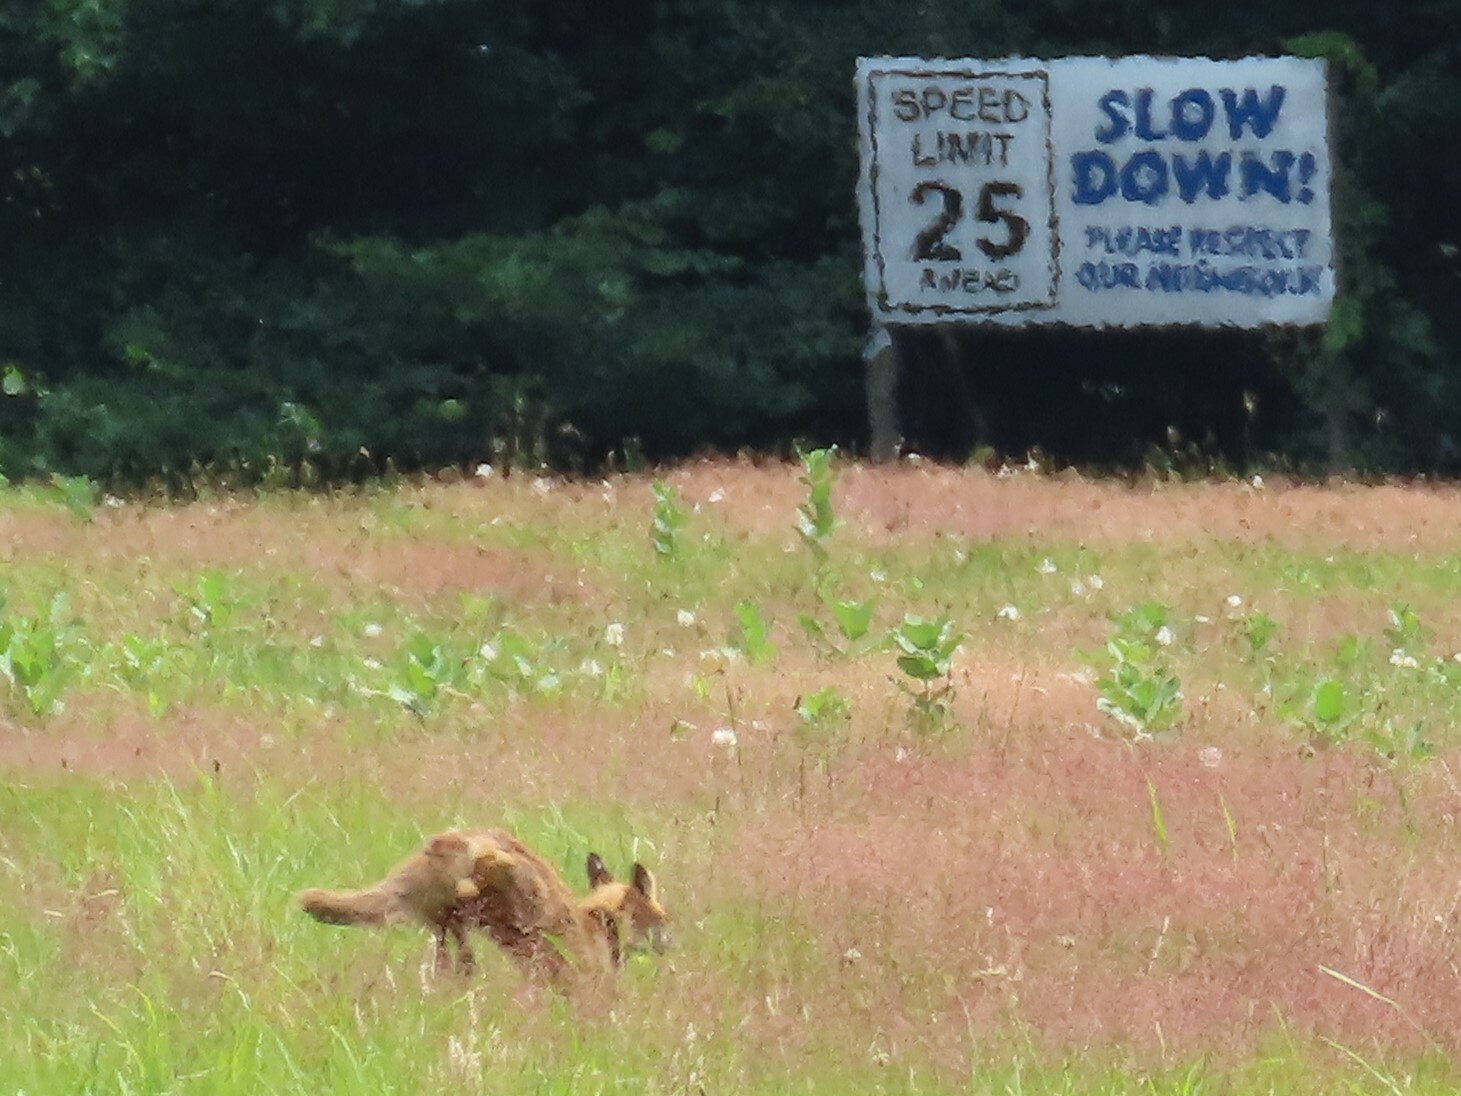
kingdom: Animalia
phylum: Chordata
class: Mammalia
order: Carnivora
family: Canidae
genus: Vulpes
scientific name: Vulpes vulpes
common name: Red fox
